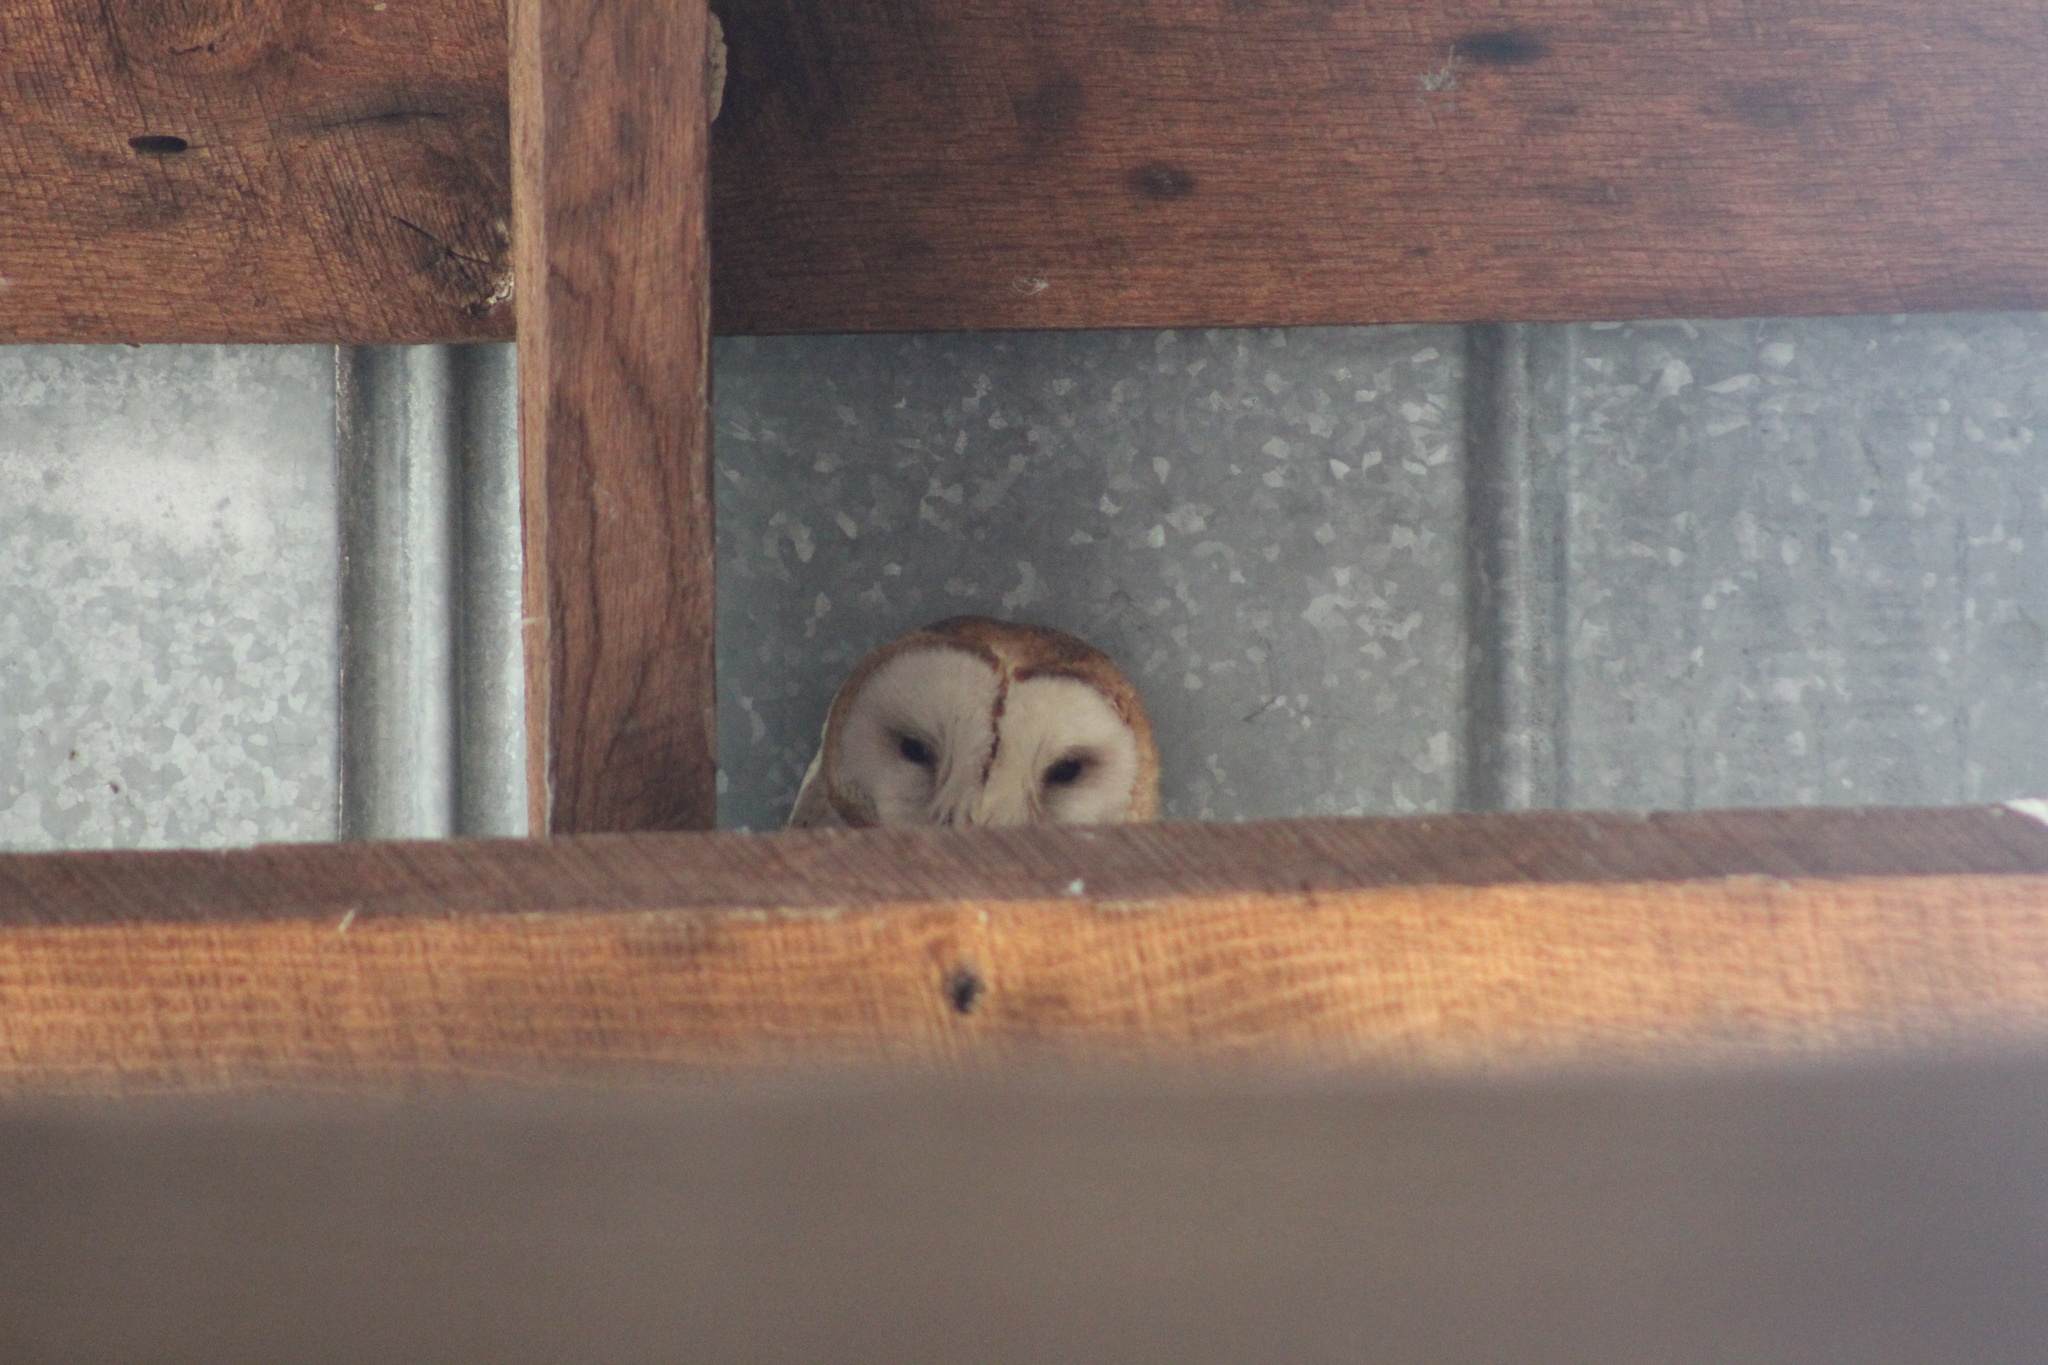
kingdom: Animalia
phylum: Chordata
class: Aves
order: Strigiformes
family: Tytonidae
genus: Tyto
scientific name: Tyto furcata
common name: American barn owl
